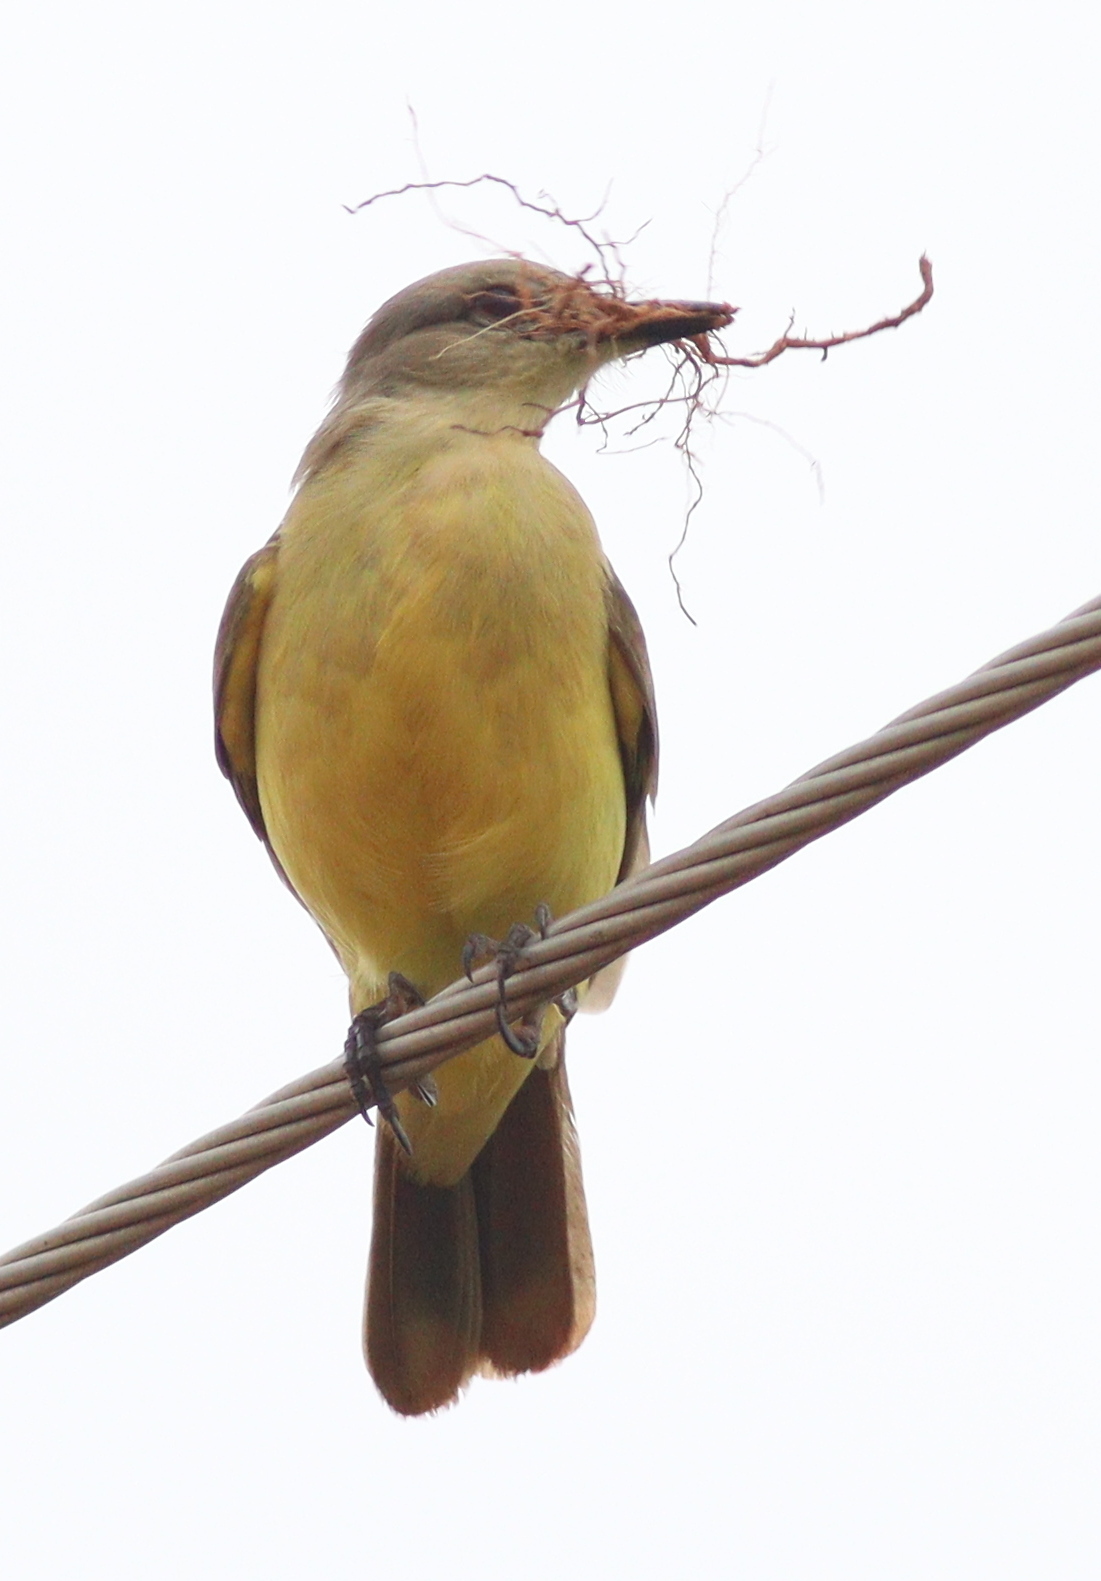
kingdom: Animalia
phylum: Chordata
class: Aves
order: Passeriformes
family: Tyrannidae
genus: Machetornis
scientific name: Machetornis rixosa
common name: Cattle tyrant
